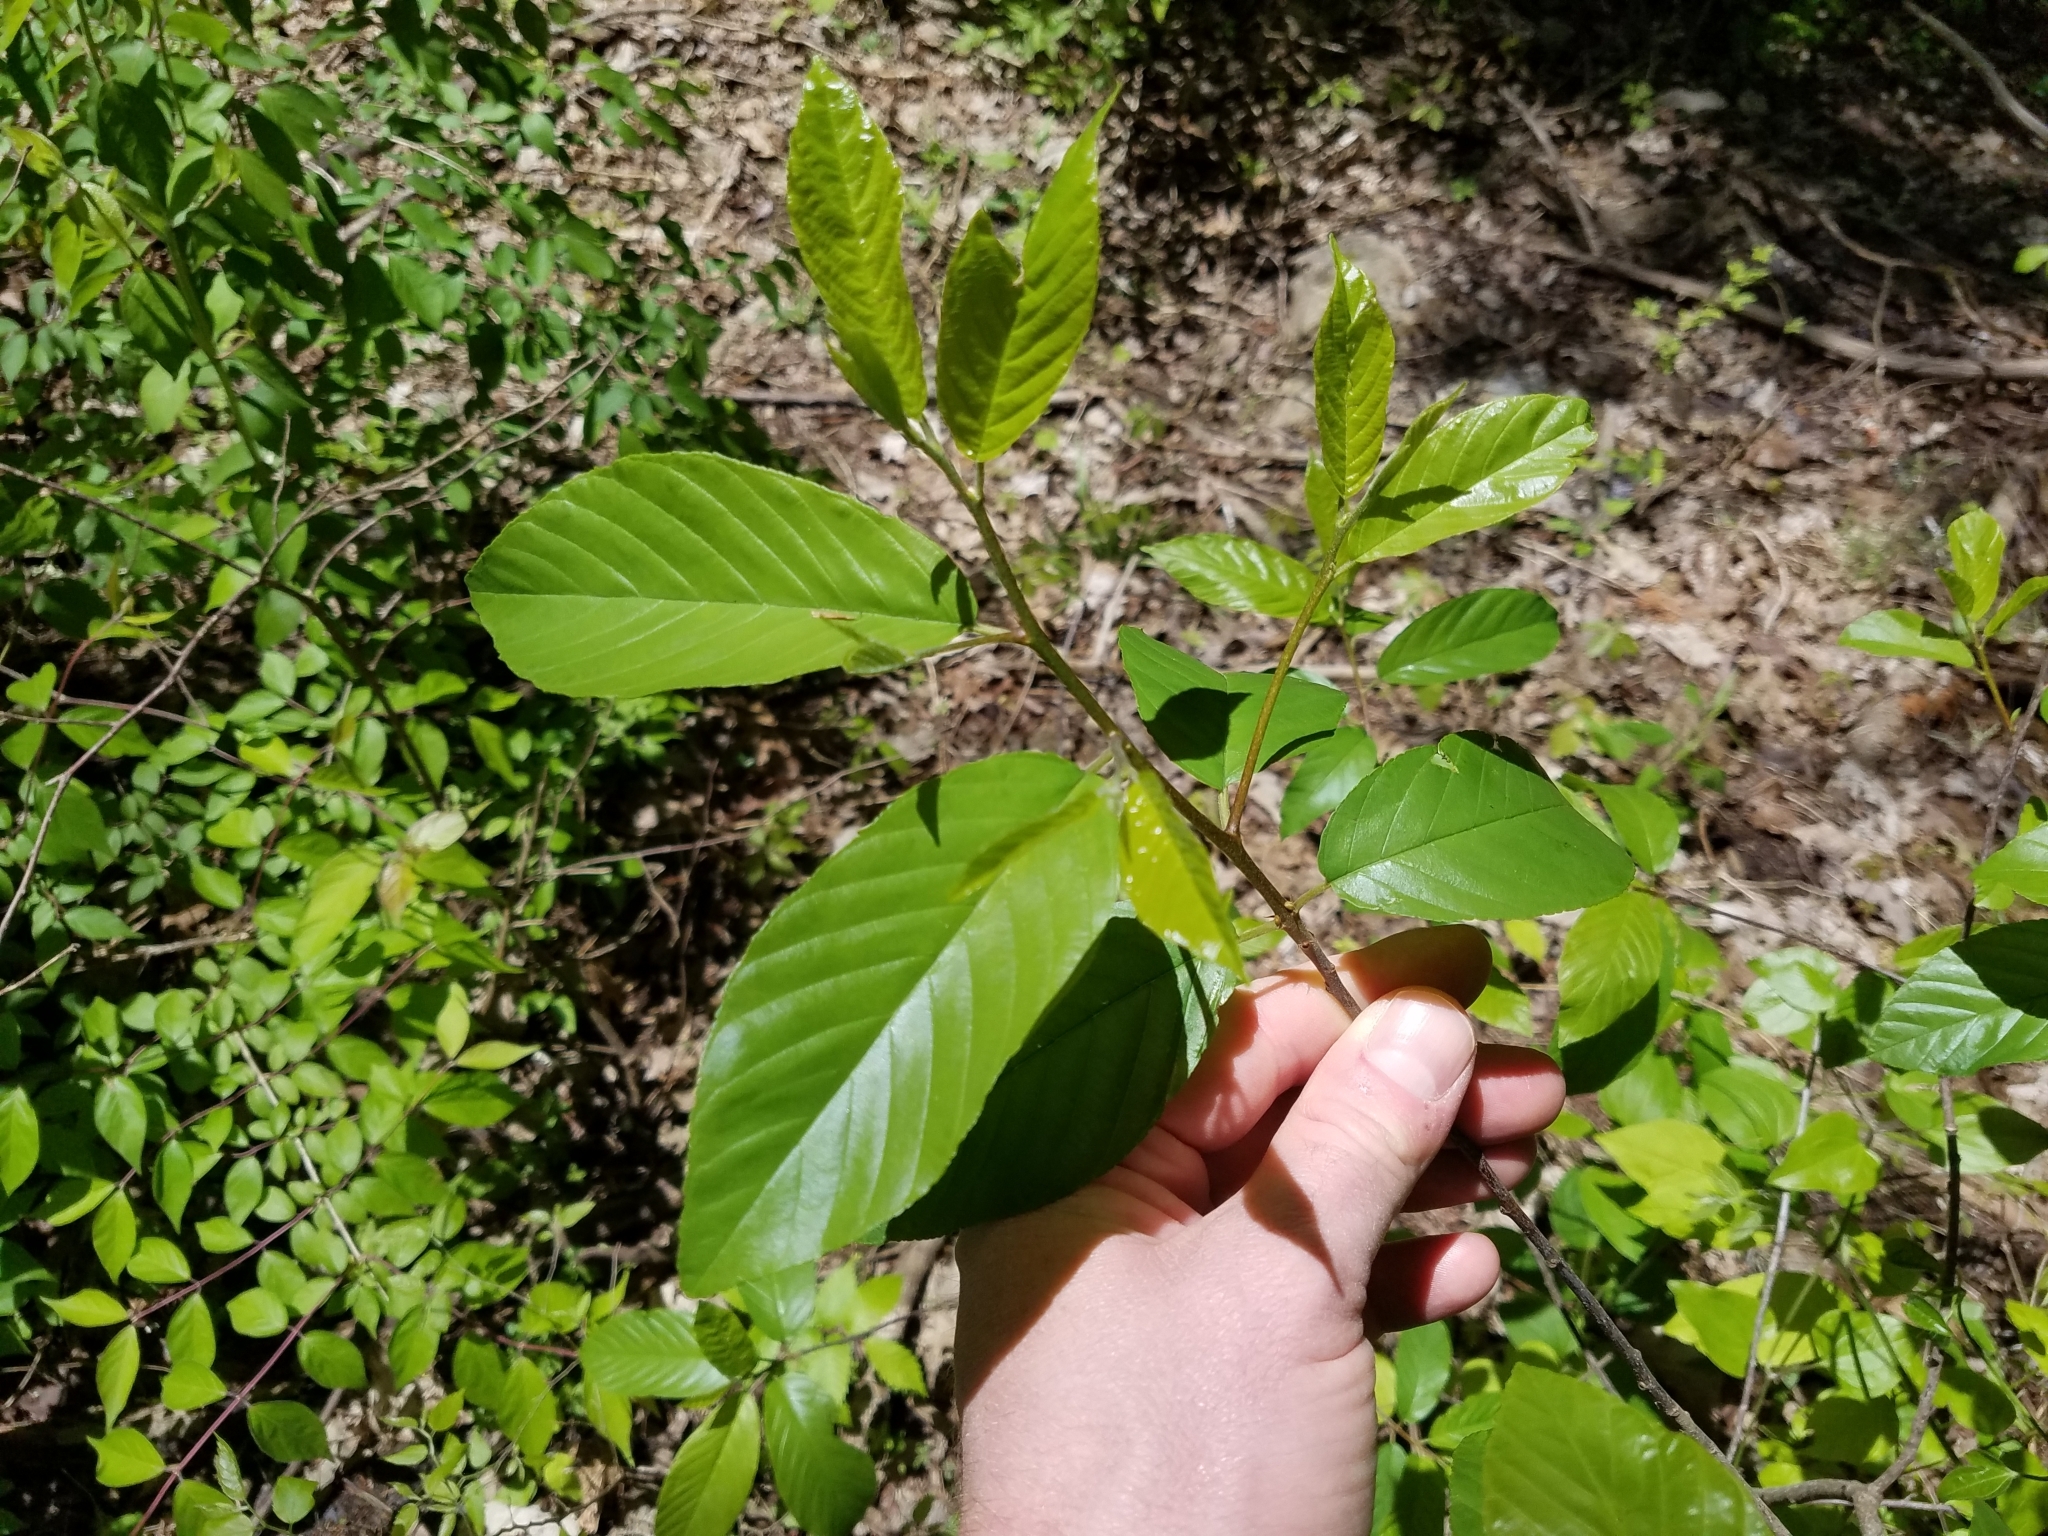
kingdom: Plantae
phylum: Tracheophyta
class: Magnoliopsida
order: Rosales
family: Rhamnaceae
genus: Frangula
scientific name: Frangula caroliniana
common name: Carolina buckthorn
